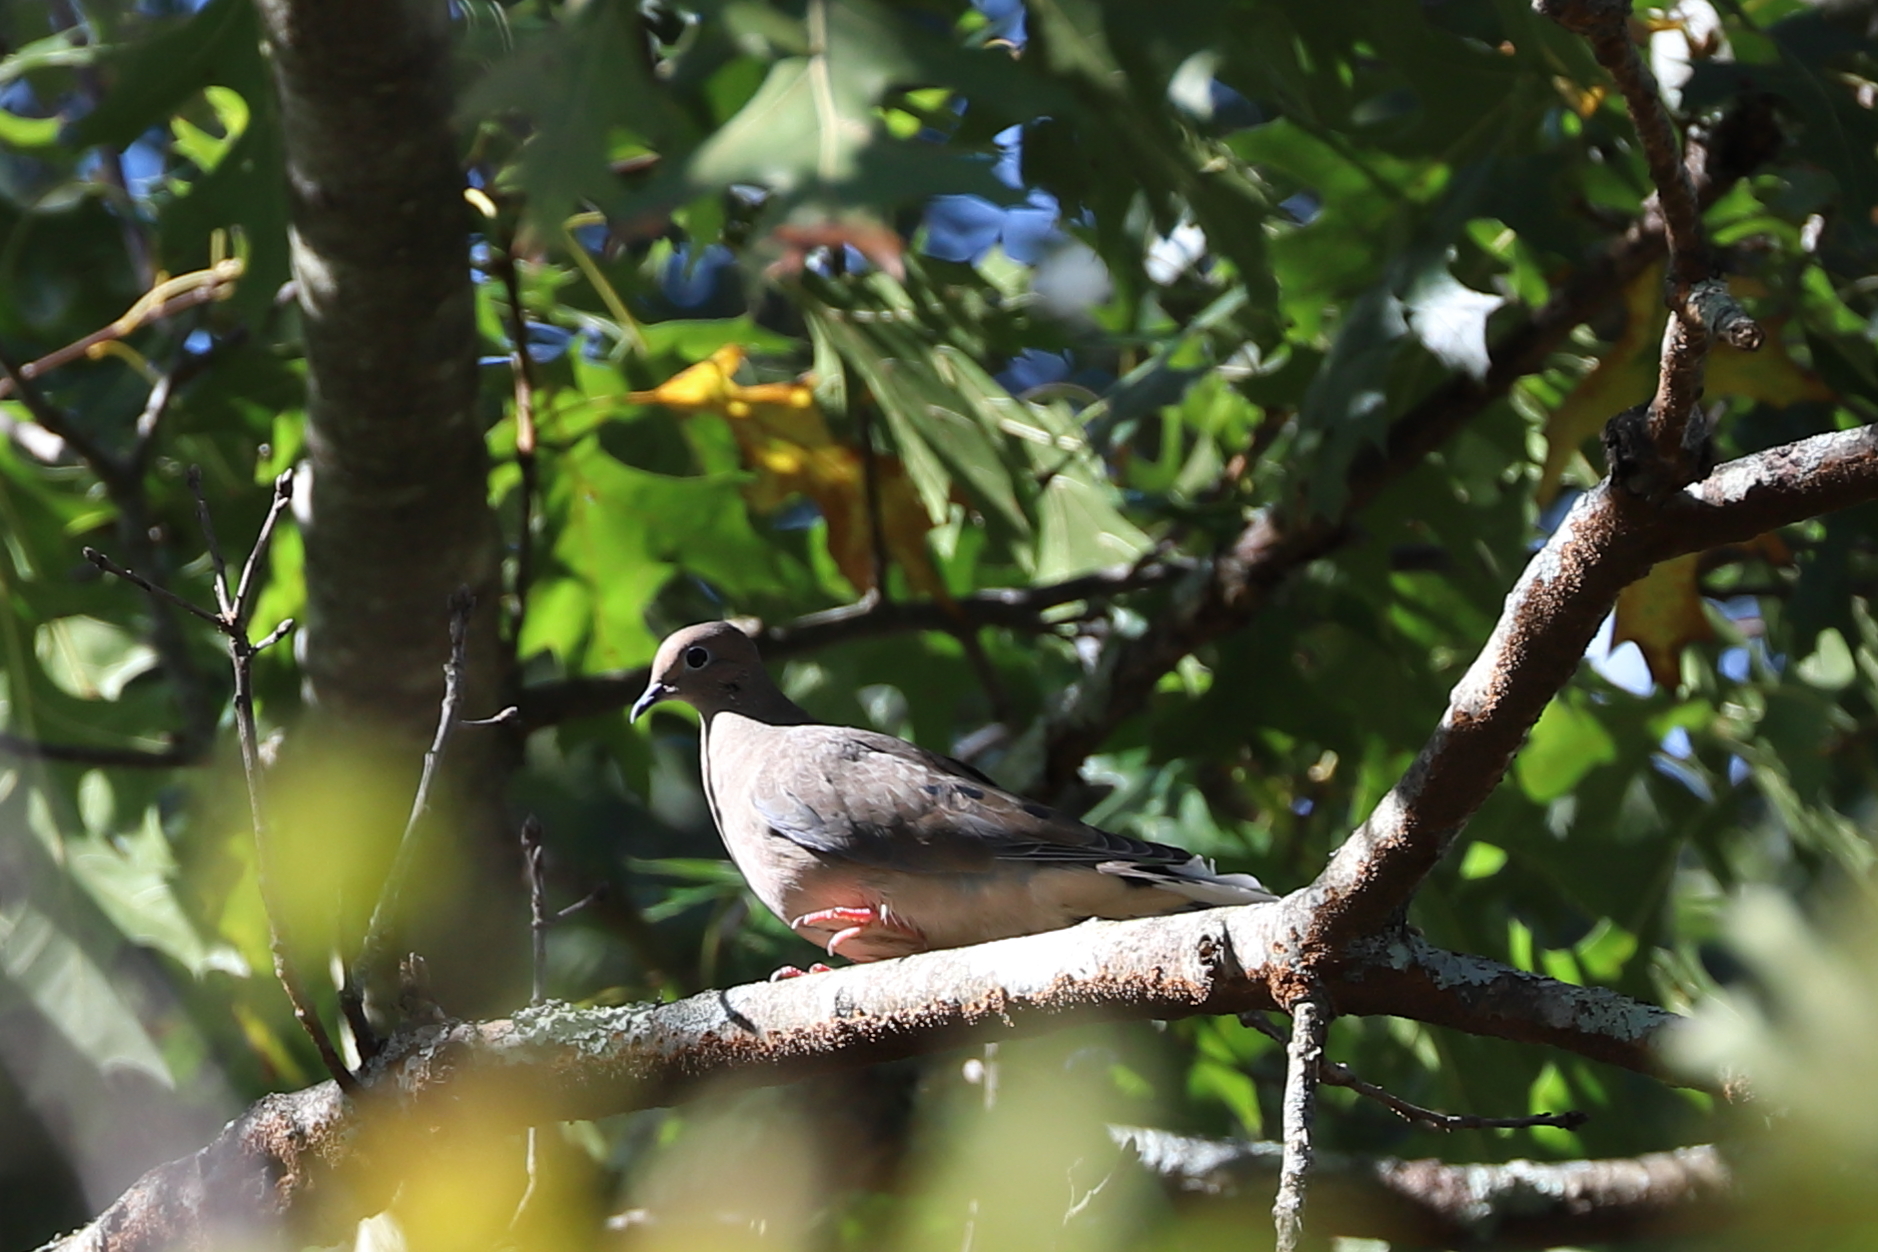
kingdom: Animalia
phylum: Chordata
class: Aves
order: Columbiformes
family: Columbidae
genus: Zenaida
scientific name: Zenaida macroura
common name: Mourning dove
